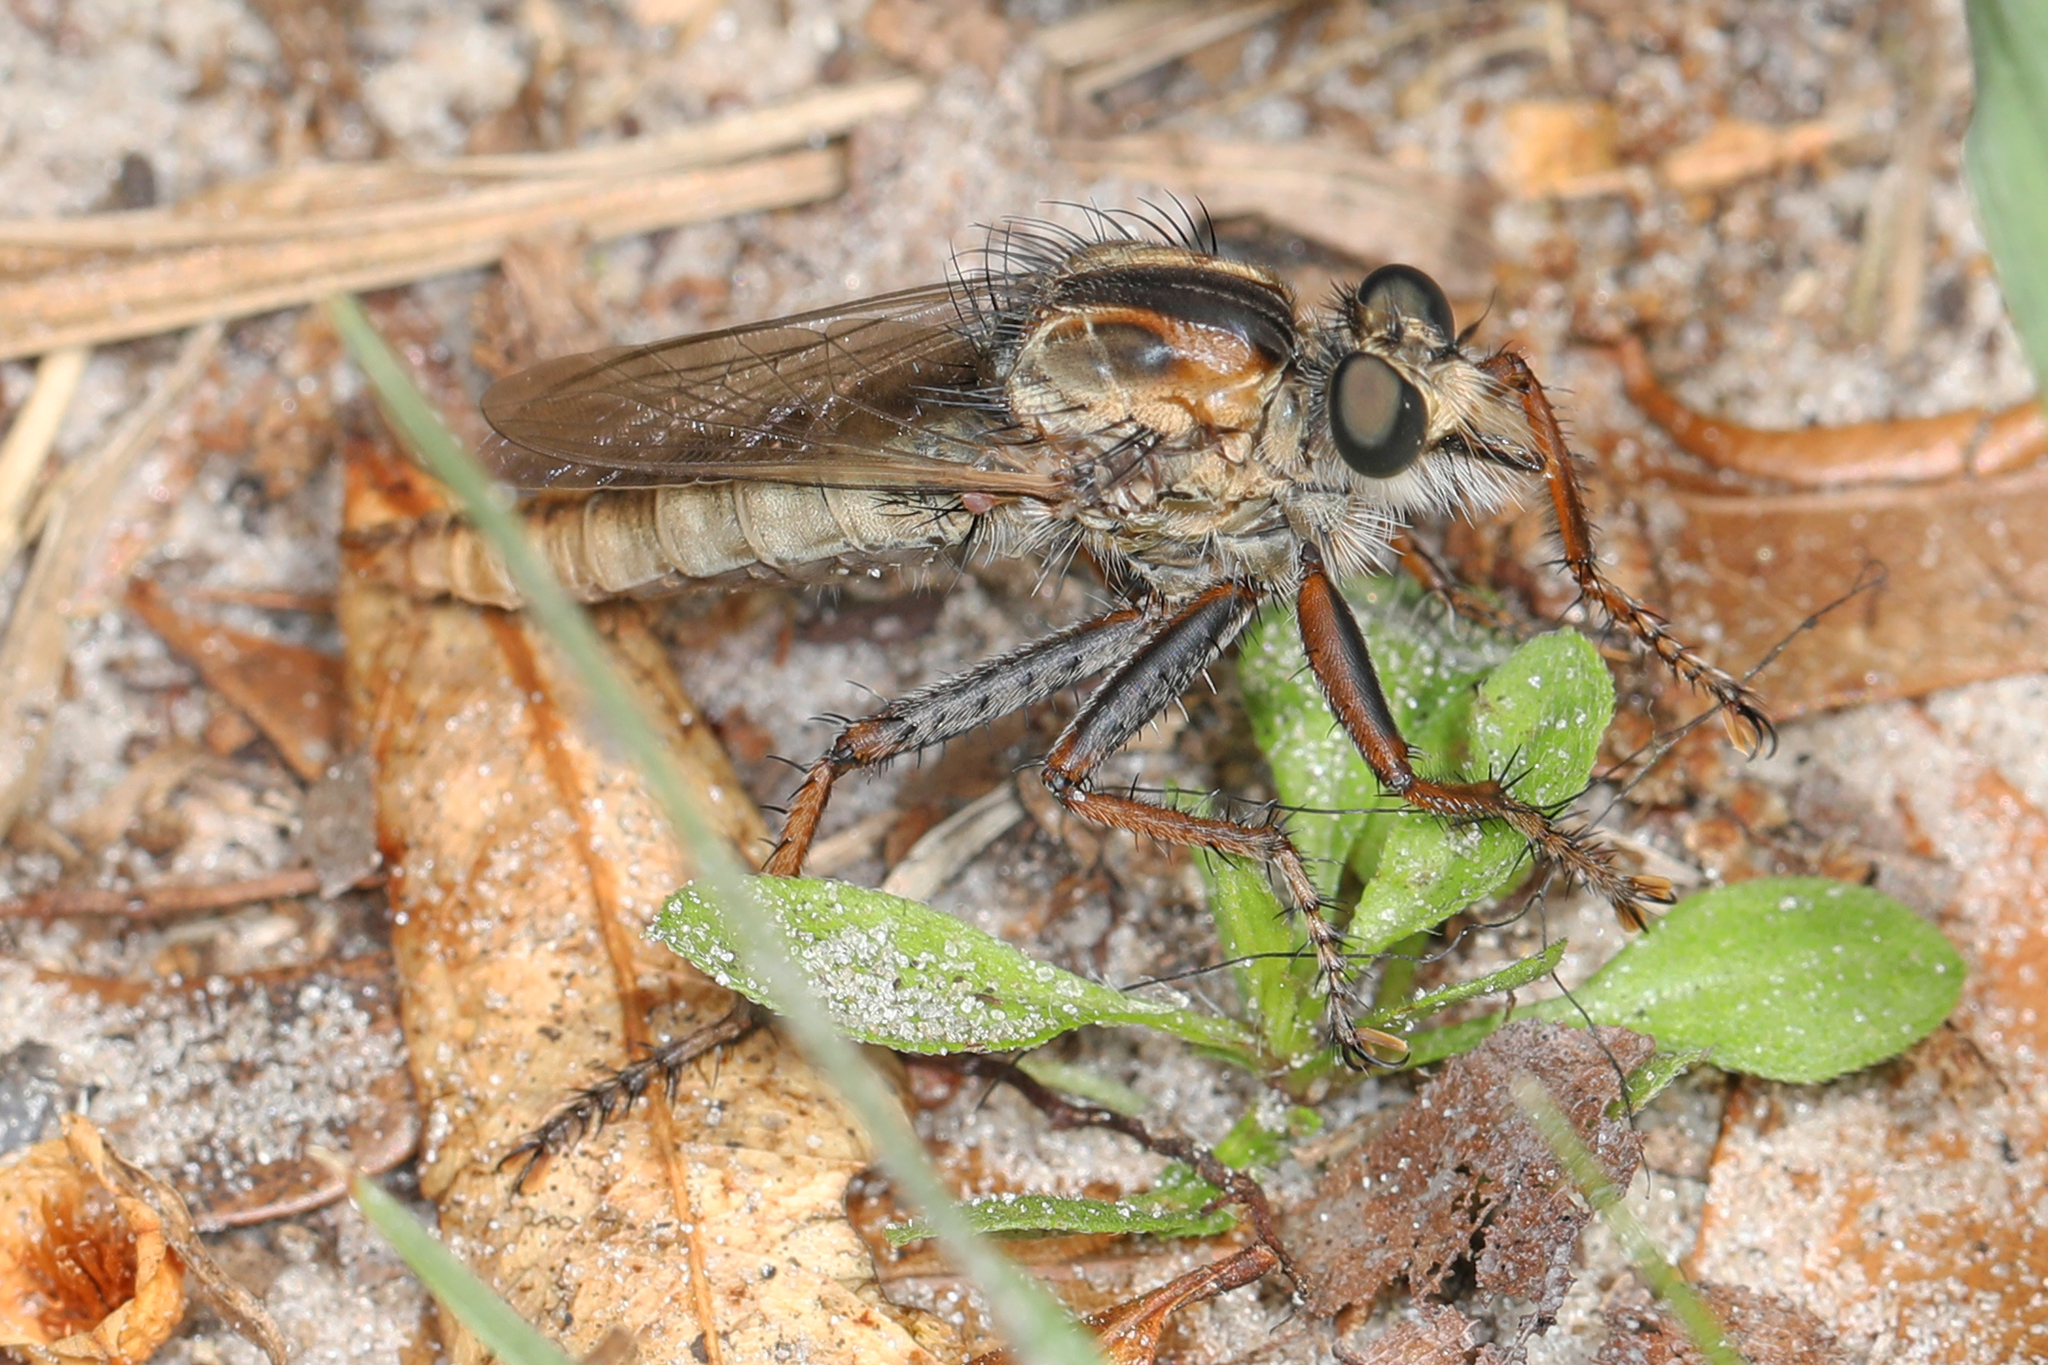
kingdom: Animalia
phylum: Arthropoda
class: Insecta
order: Diptera
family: Asilidae
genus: Proctacanthus
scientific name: Proctacanthus brevipennis
